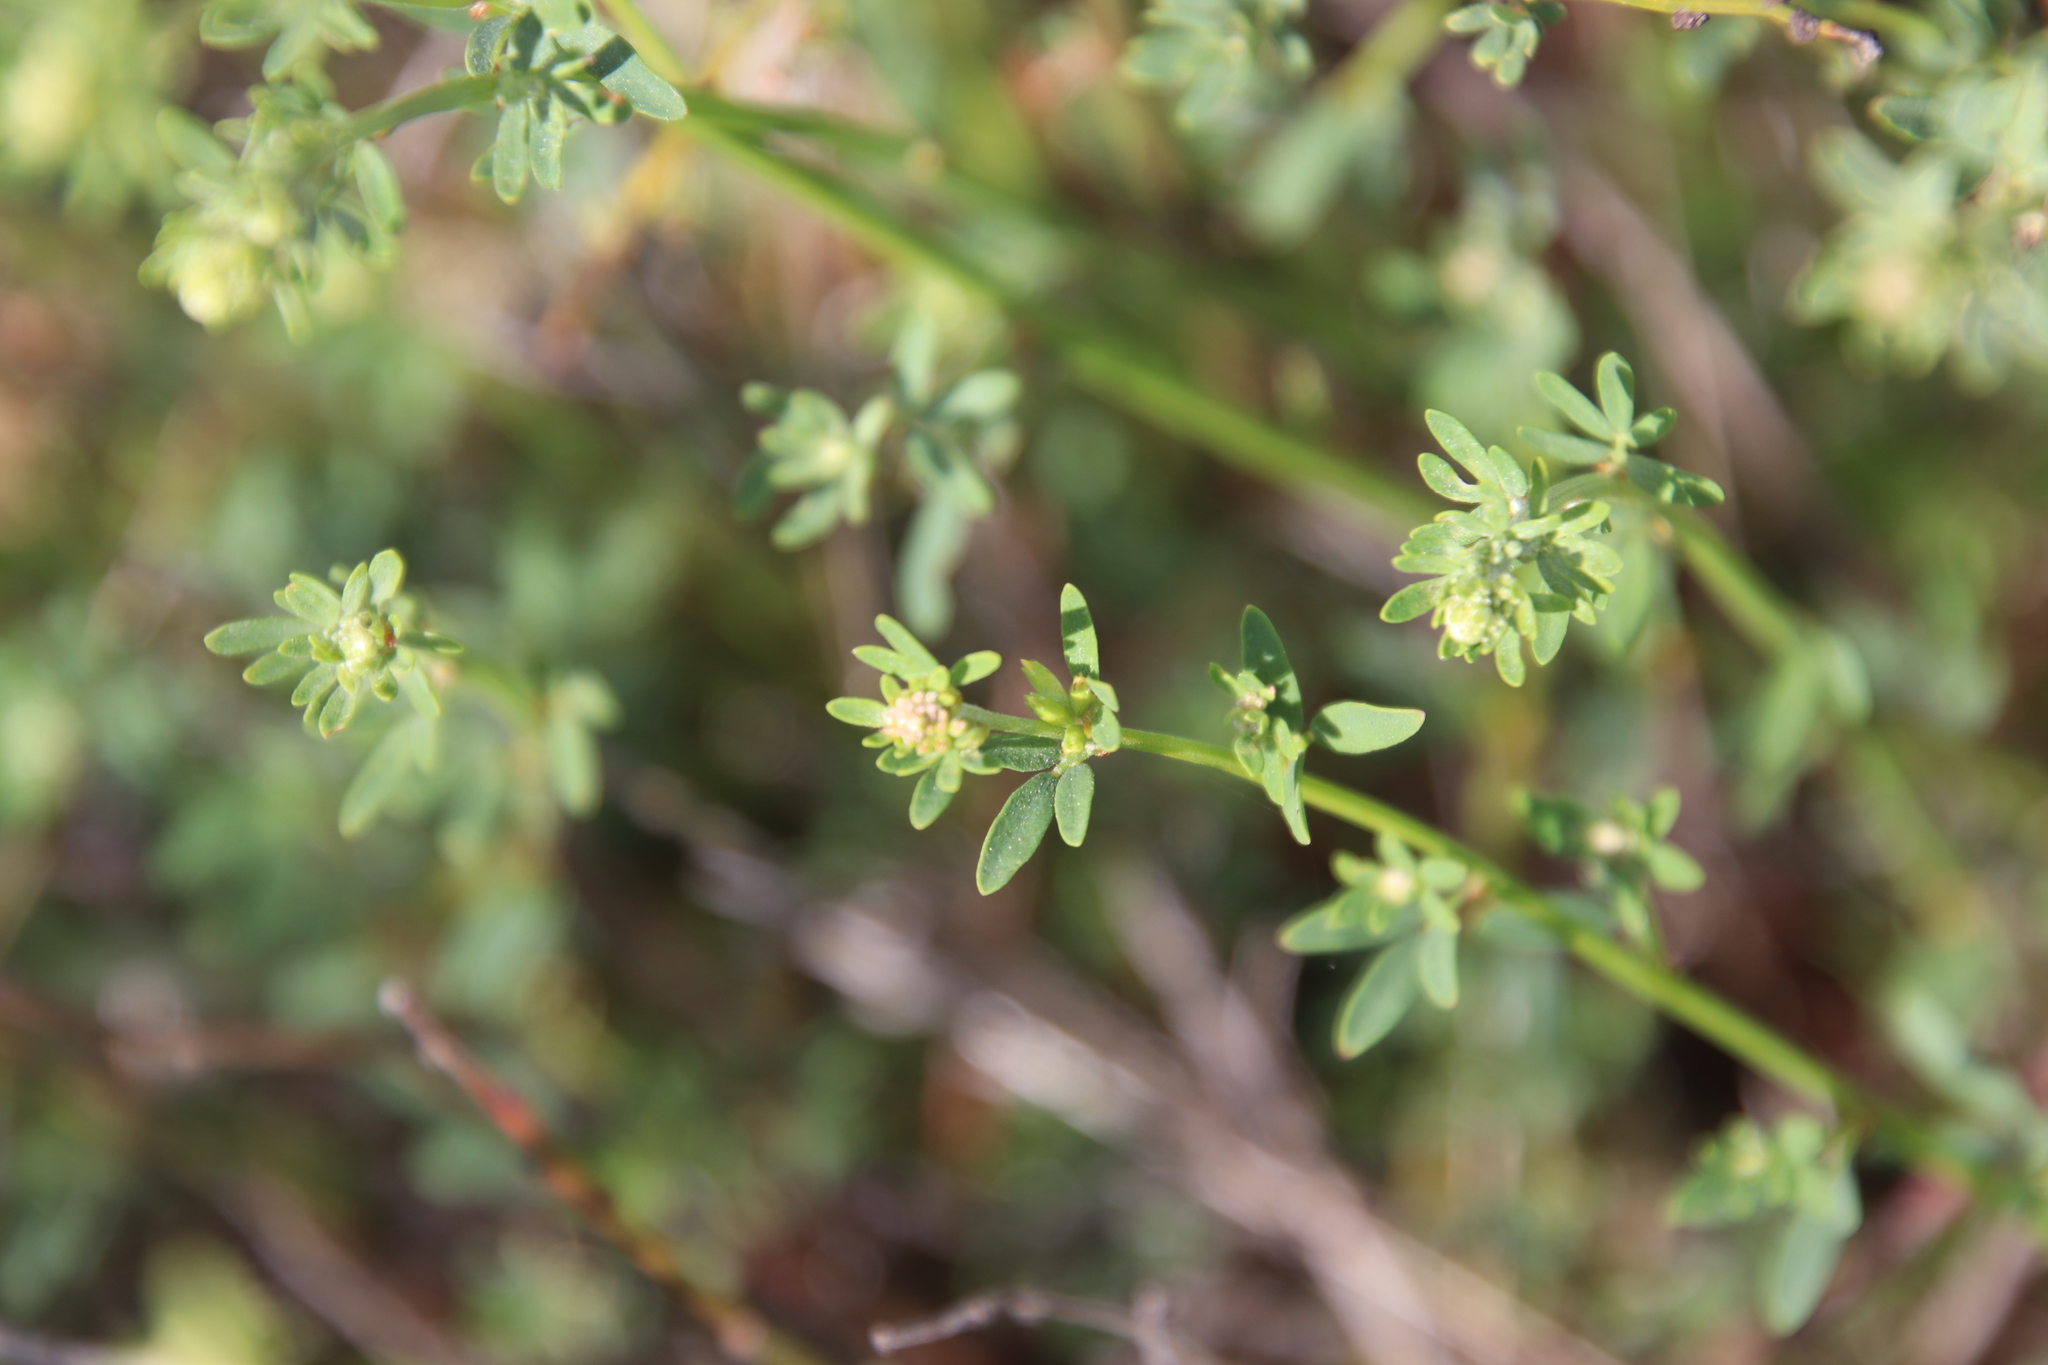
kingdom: Plantae
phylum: Tracheophyta
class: Magnoliopsida
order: Fabales
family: Fabaceae
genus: Acmispon
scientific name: Acmispon glaber
